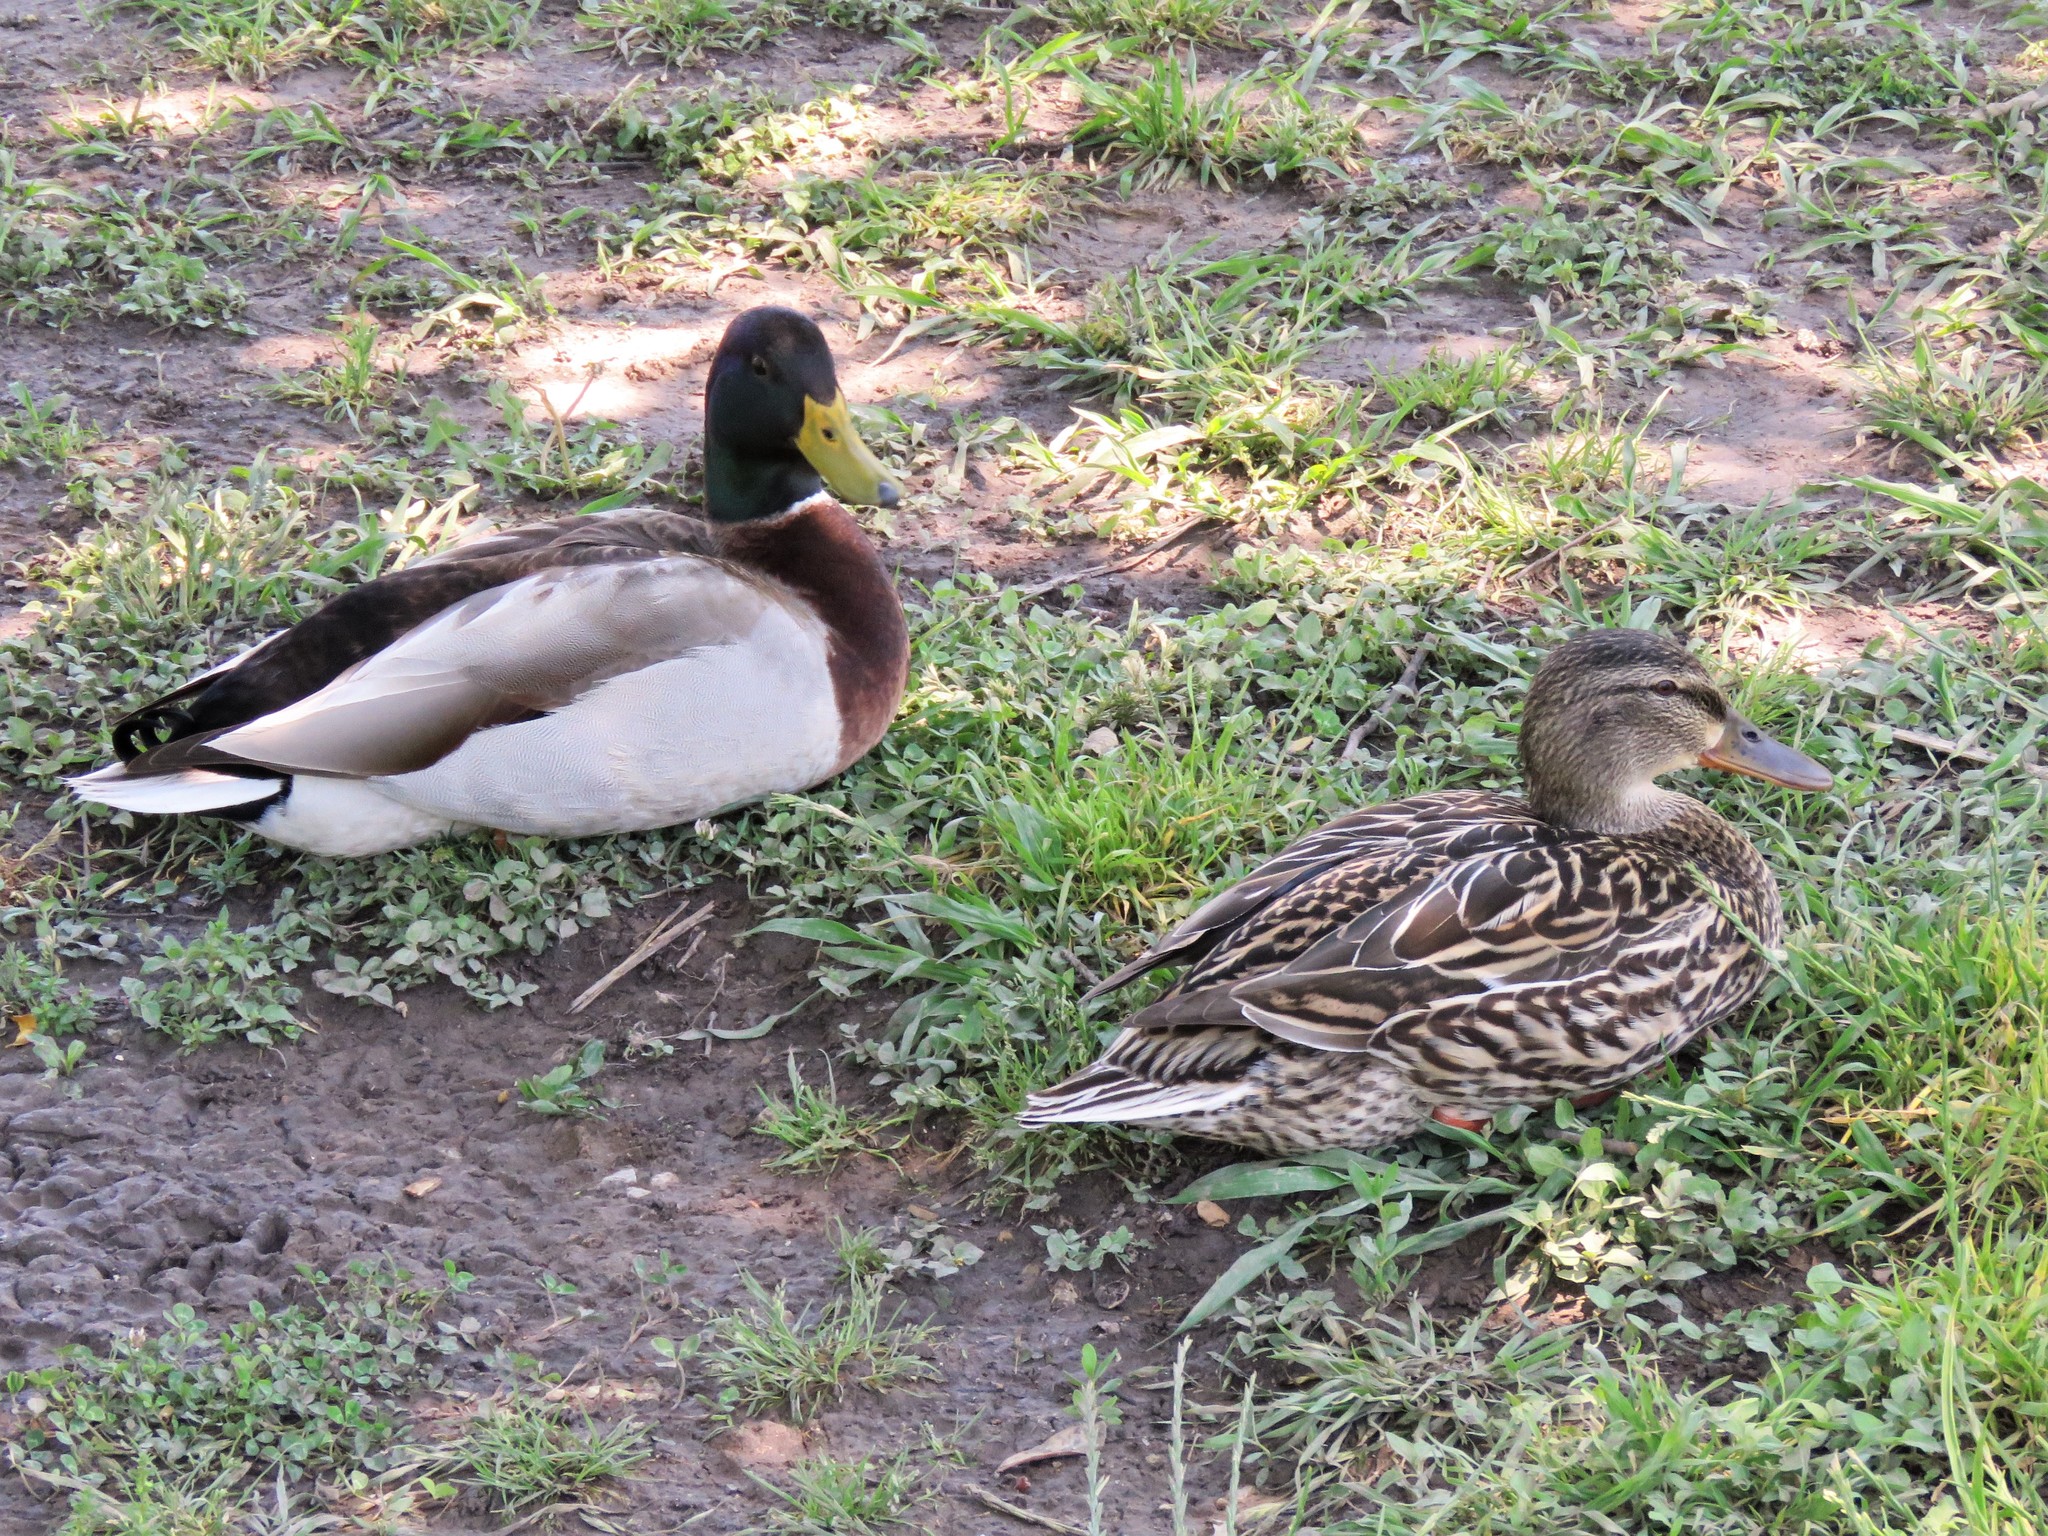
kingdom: Animalia
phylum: Chordata
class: Aves
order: Anseriformes
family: Anatidae
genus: Anas
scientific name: Anas platyrhynchos
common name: Mallard
